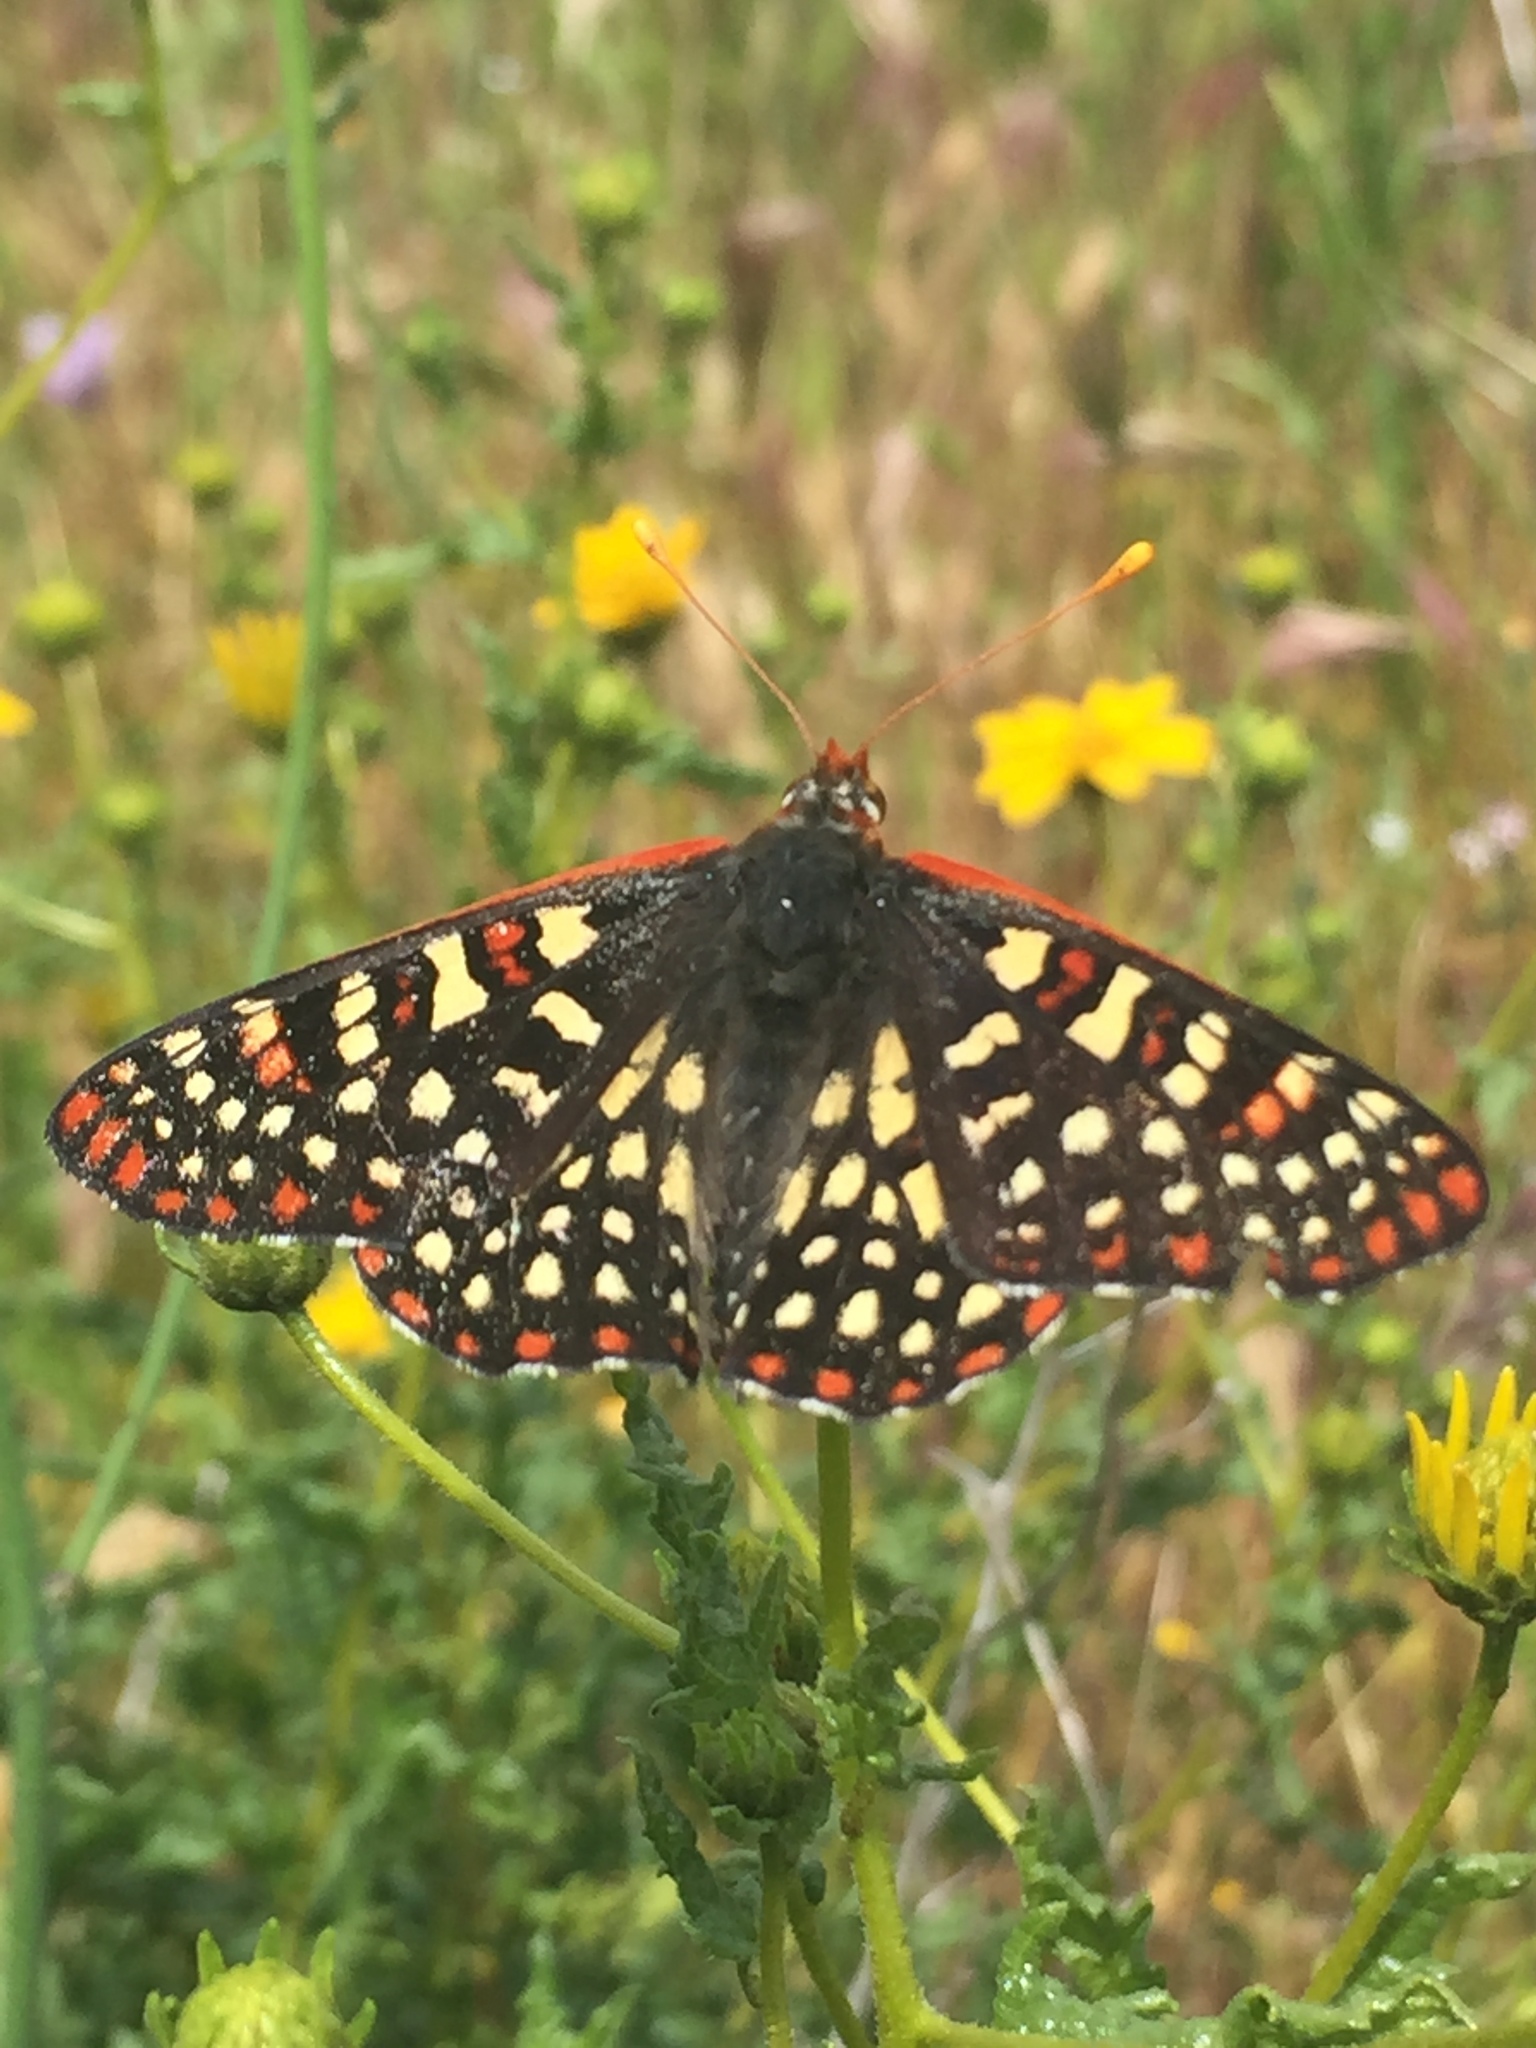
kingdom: Animalia
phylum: Arthropoda
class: Insecta
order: Lepidoptera
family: Nymphalidae
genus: Occidryas
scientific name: Occidryas chalcedona
